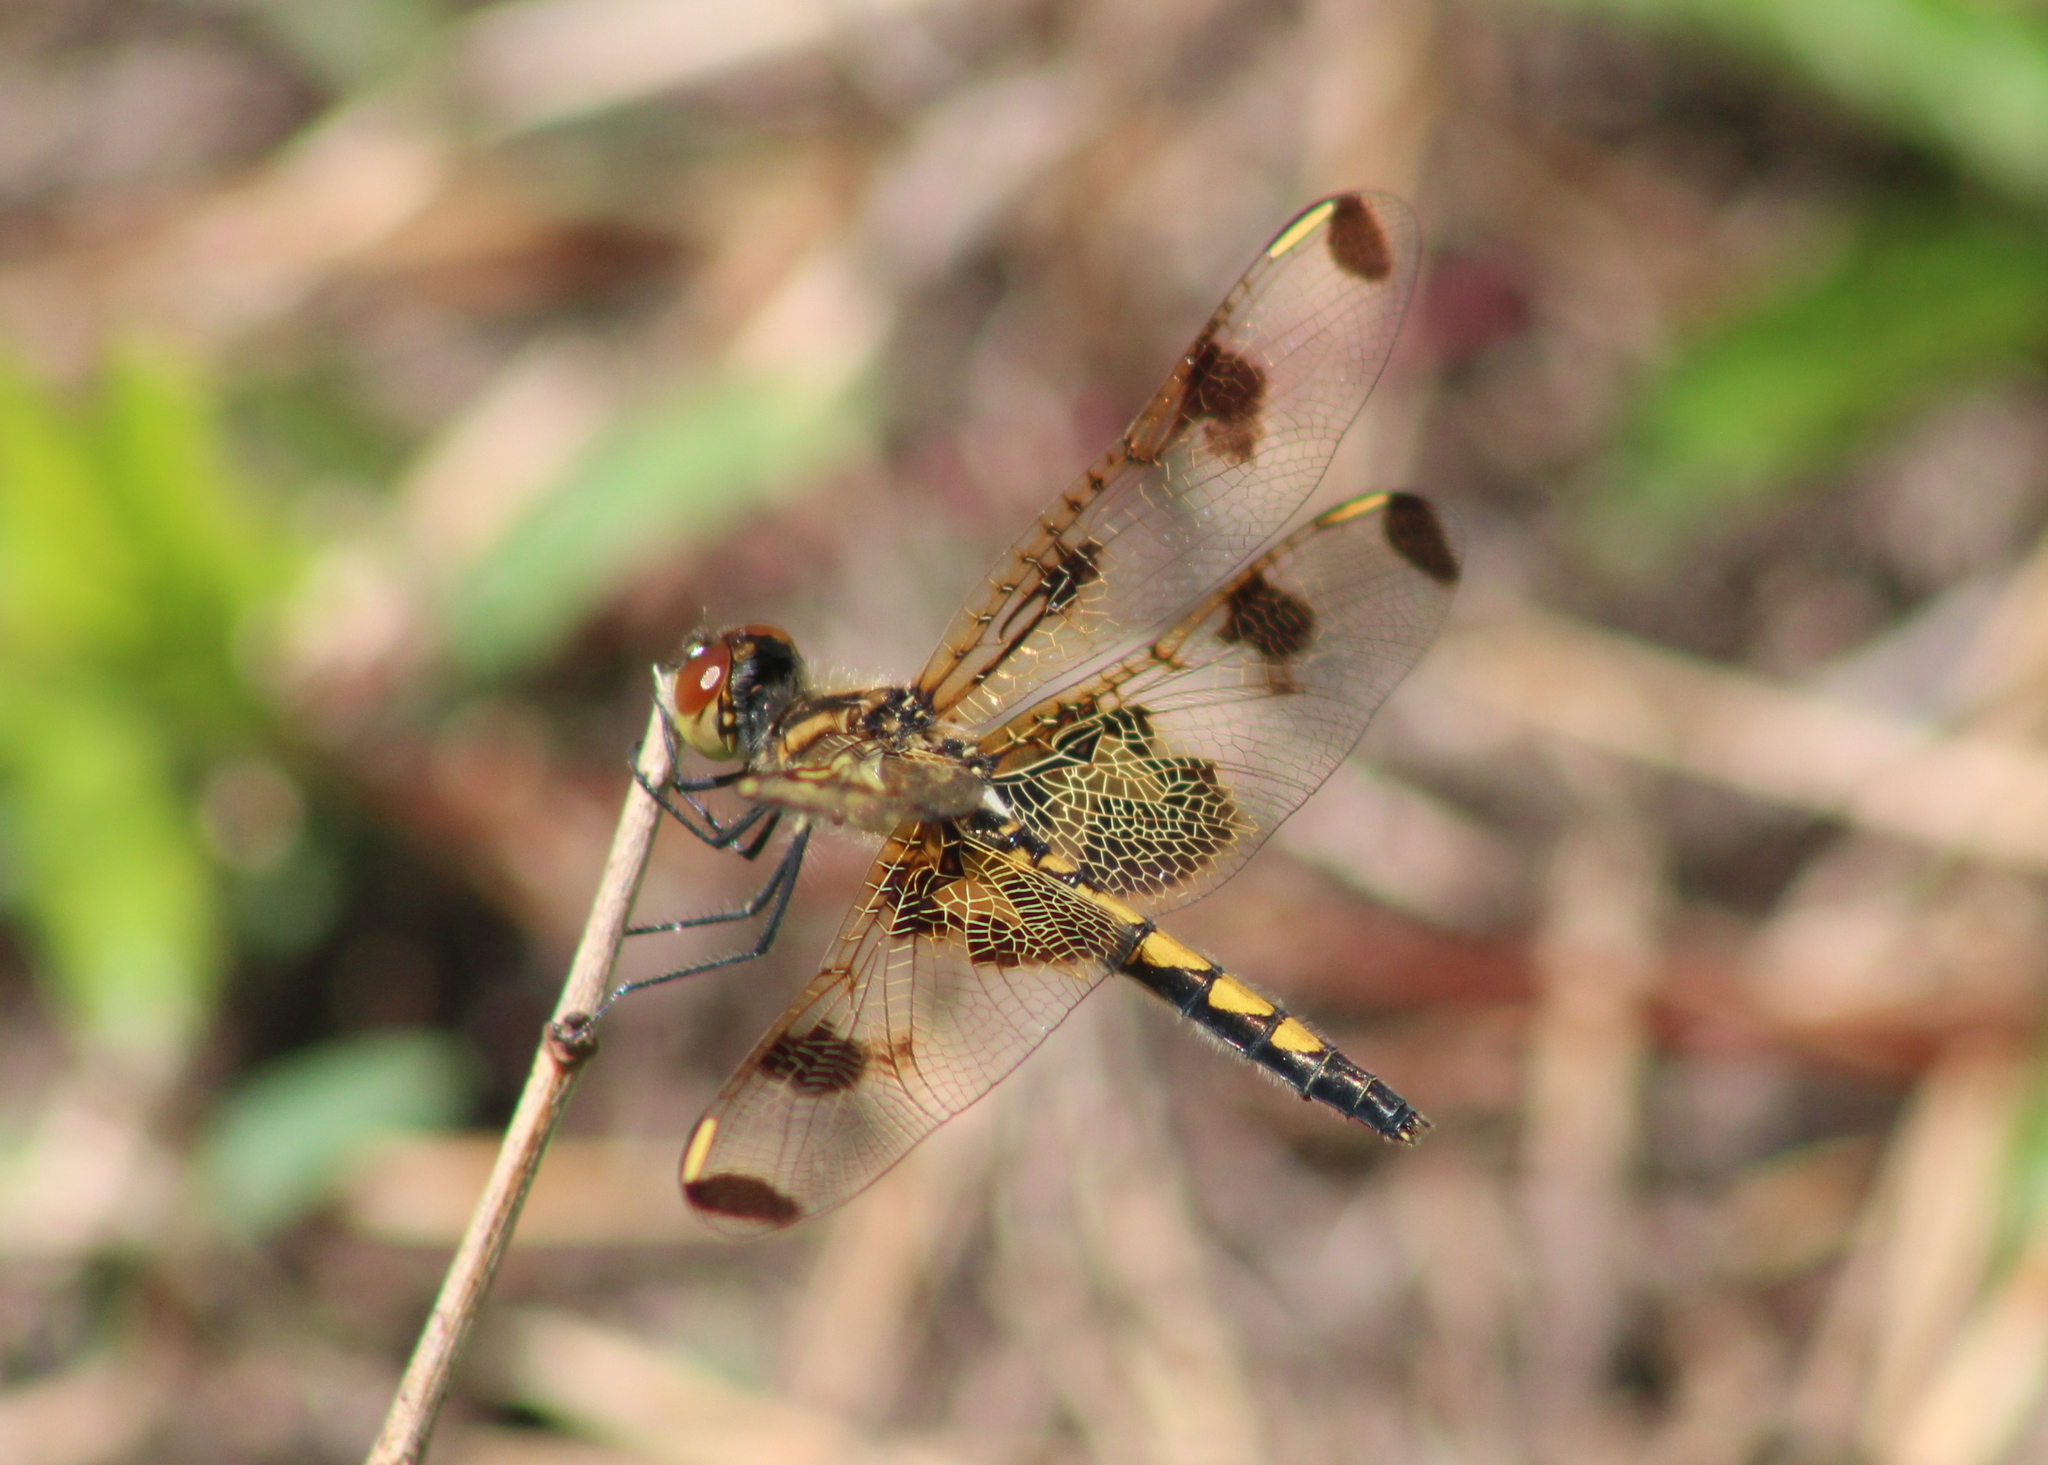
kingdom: Animalia
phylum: Arthropoda
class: Insecta
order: Odonata
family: Libellulidae
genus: Celithemis
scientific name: Celithemis elisa
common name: Calico pennant
